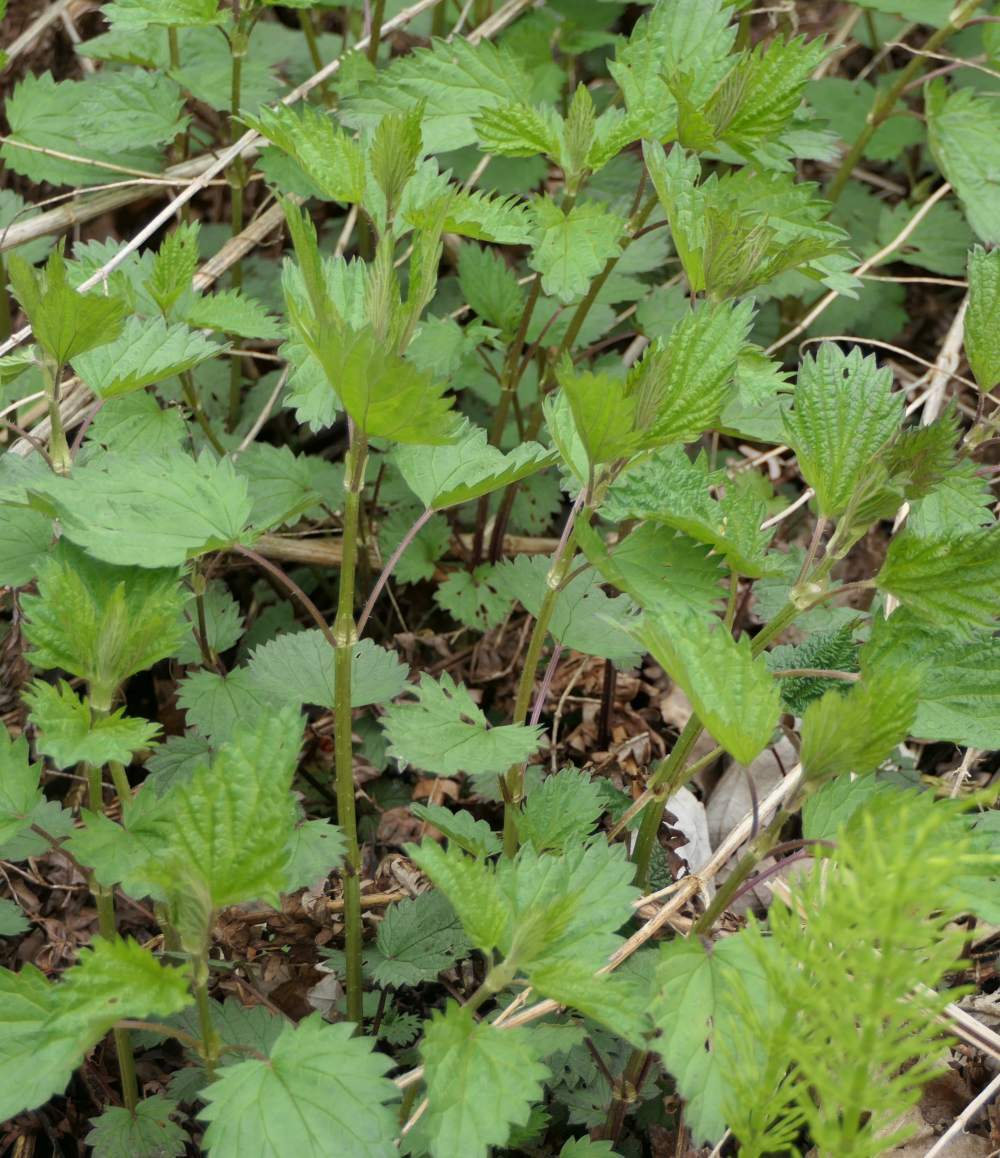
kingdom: Plantae
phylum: Tracheophyta
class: Magnoliopsida
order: Rosales
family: Urticaceae
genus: Urtica
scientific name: Urtica dioica
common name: Common nettle
